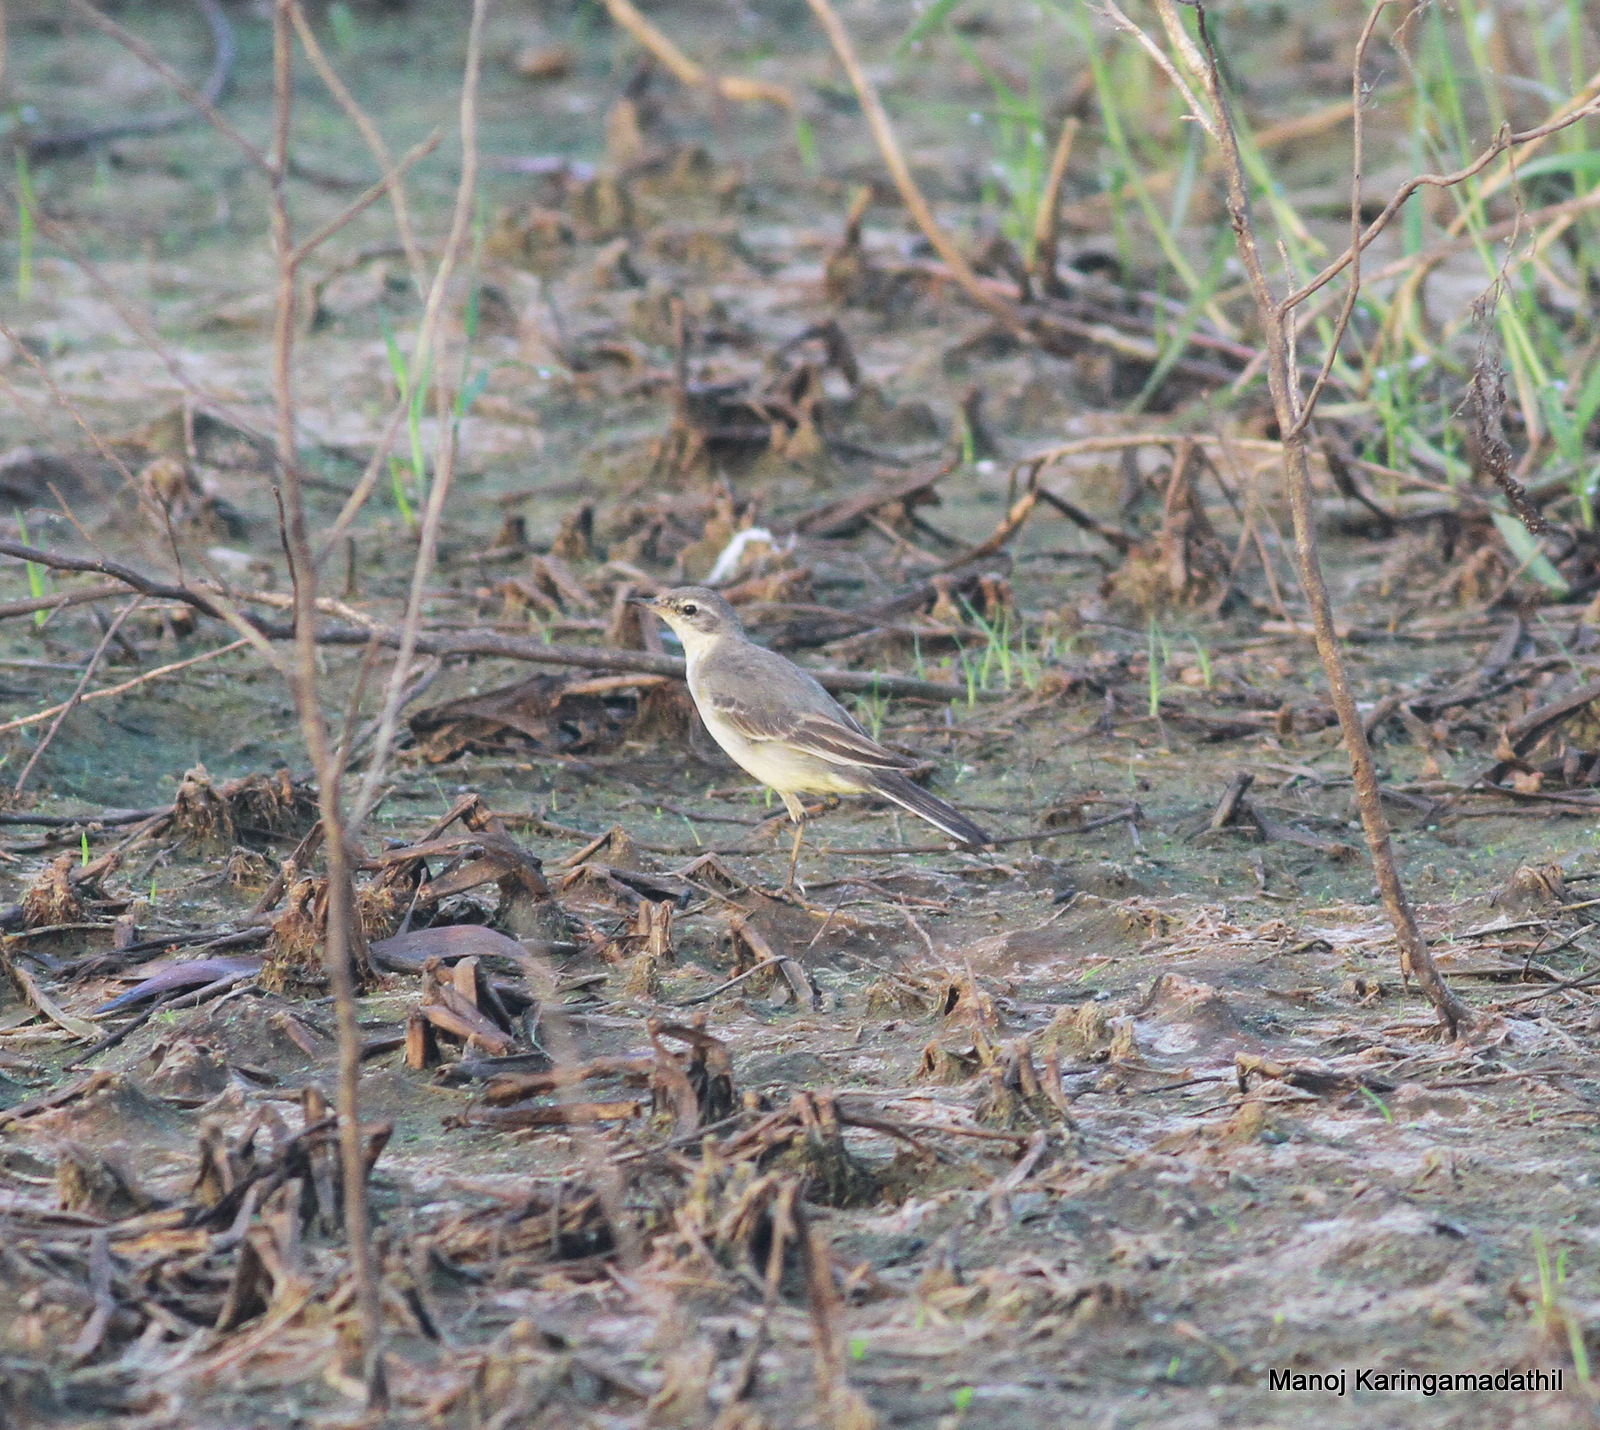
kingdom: Animalia
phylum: Chordata
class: Aves
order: Passeriformes
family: Motacillidae
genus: Motacilla
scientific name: Motacilla flava
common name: Western yellow wagtail
